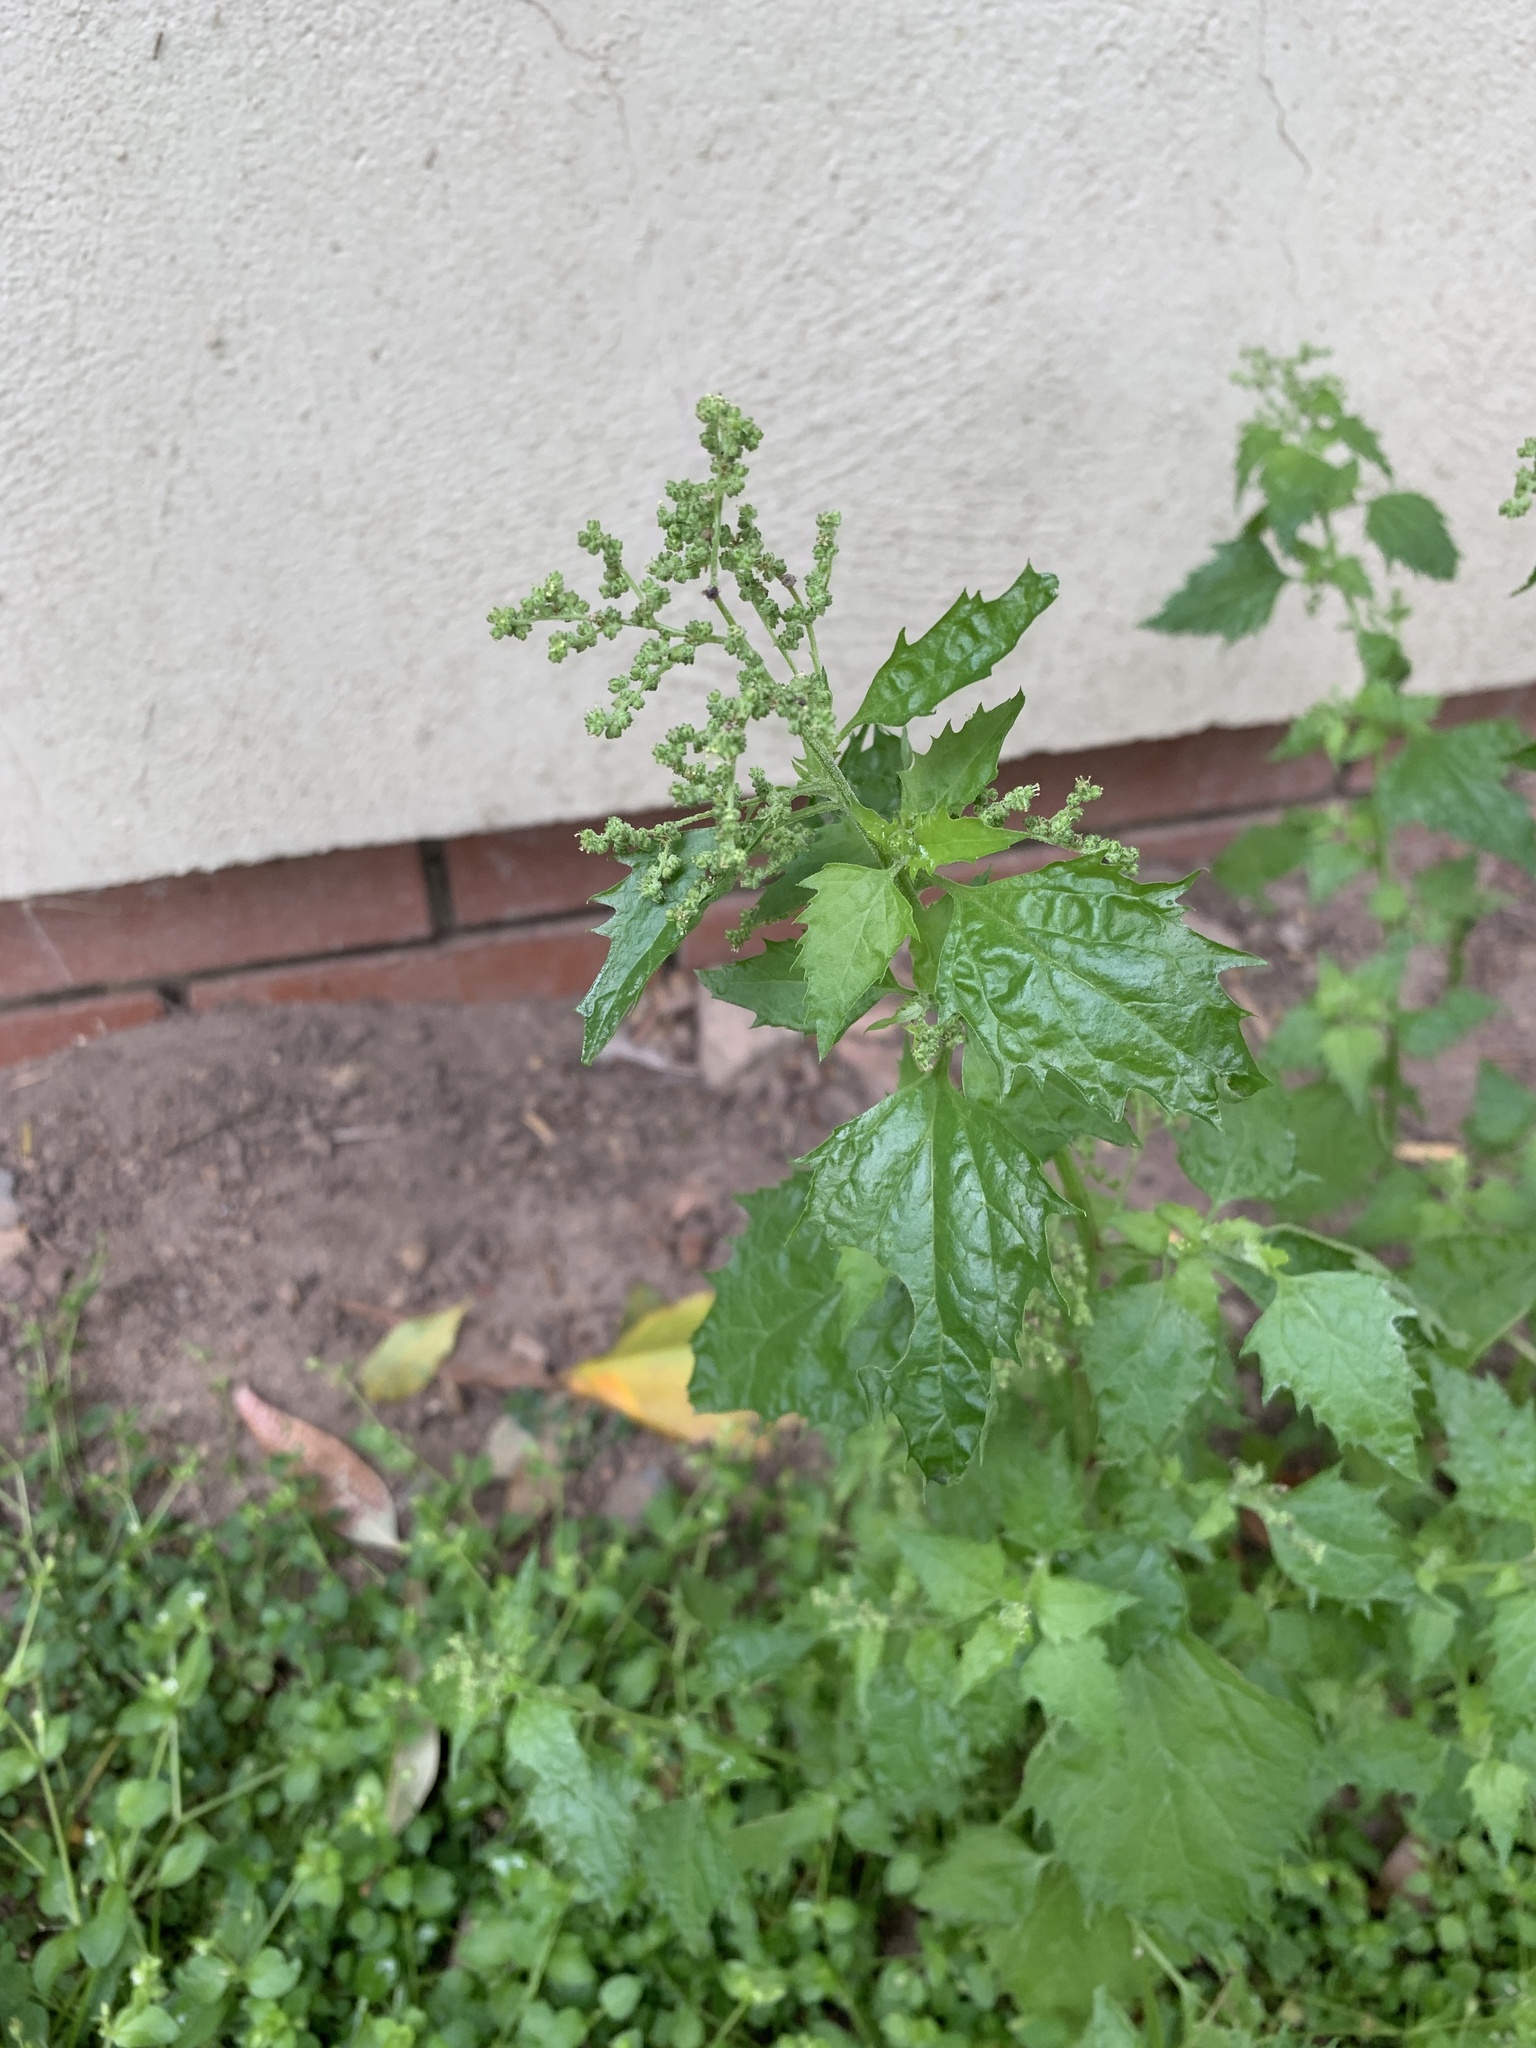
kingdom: Plantae
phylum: Tracheophyta
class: Magnoliopsida
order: Caryophyllales
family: Amaranthaceae
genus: Chenopodiastrum
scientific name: Chenopodiastrum murale
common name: Sowbane
